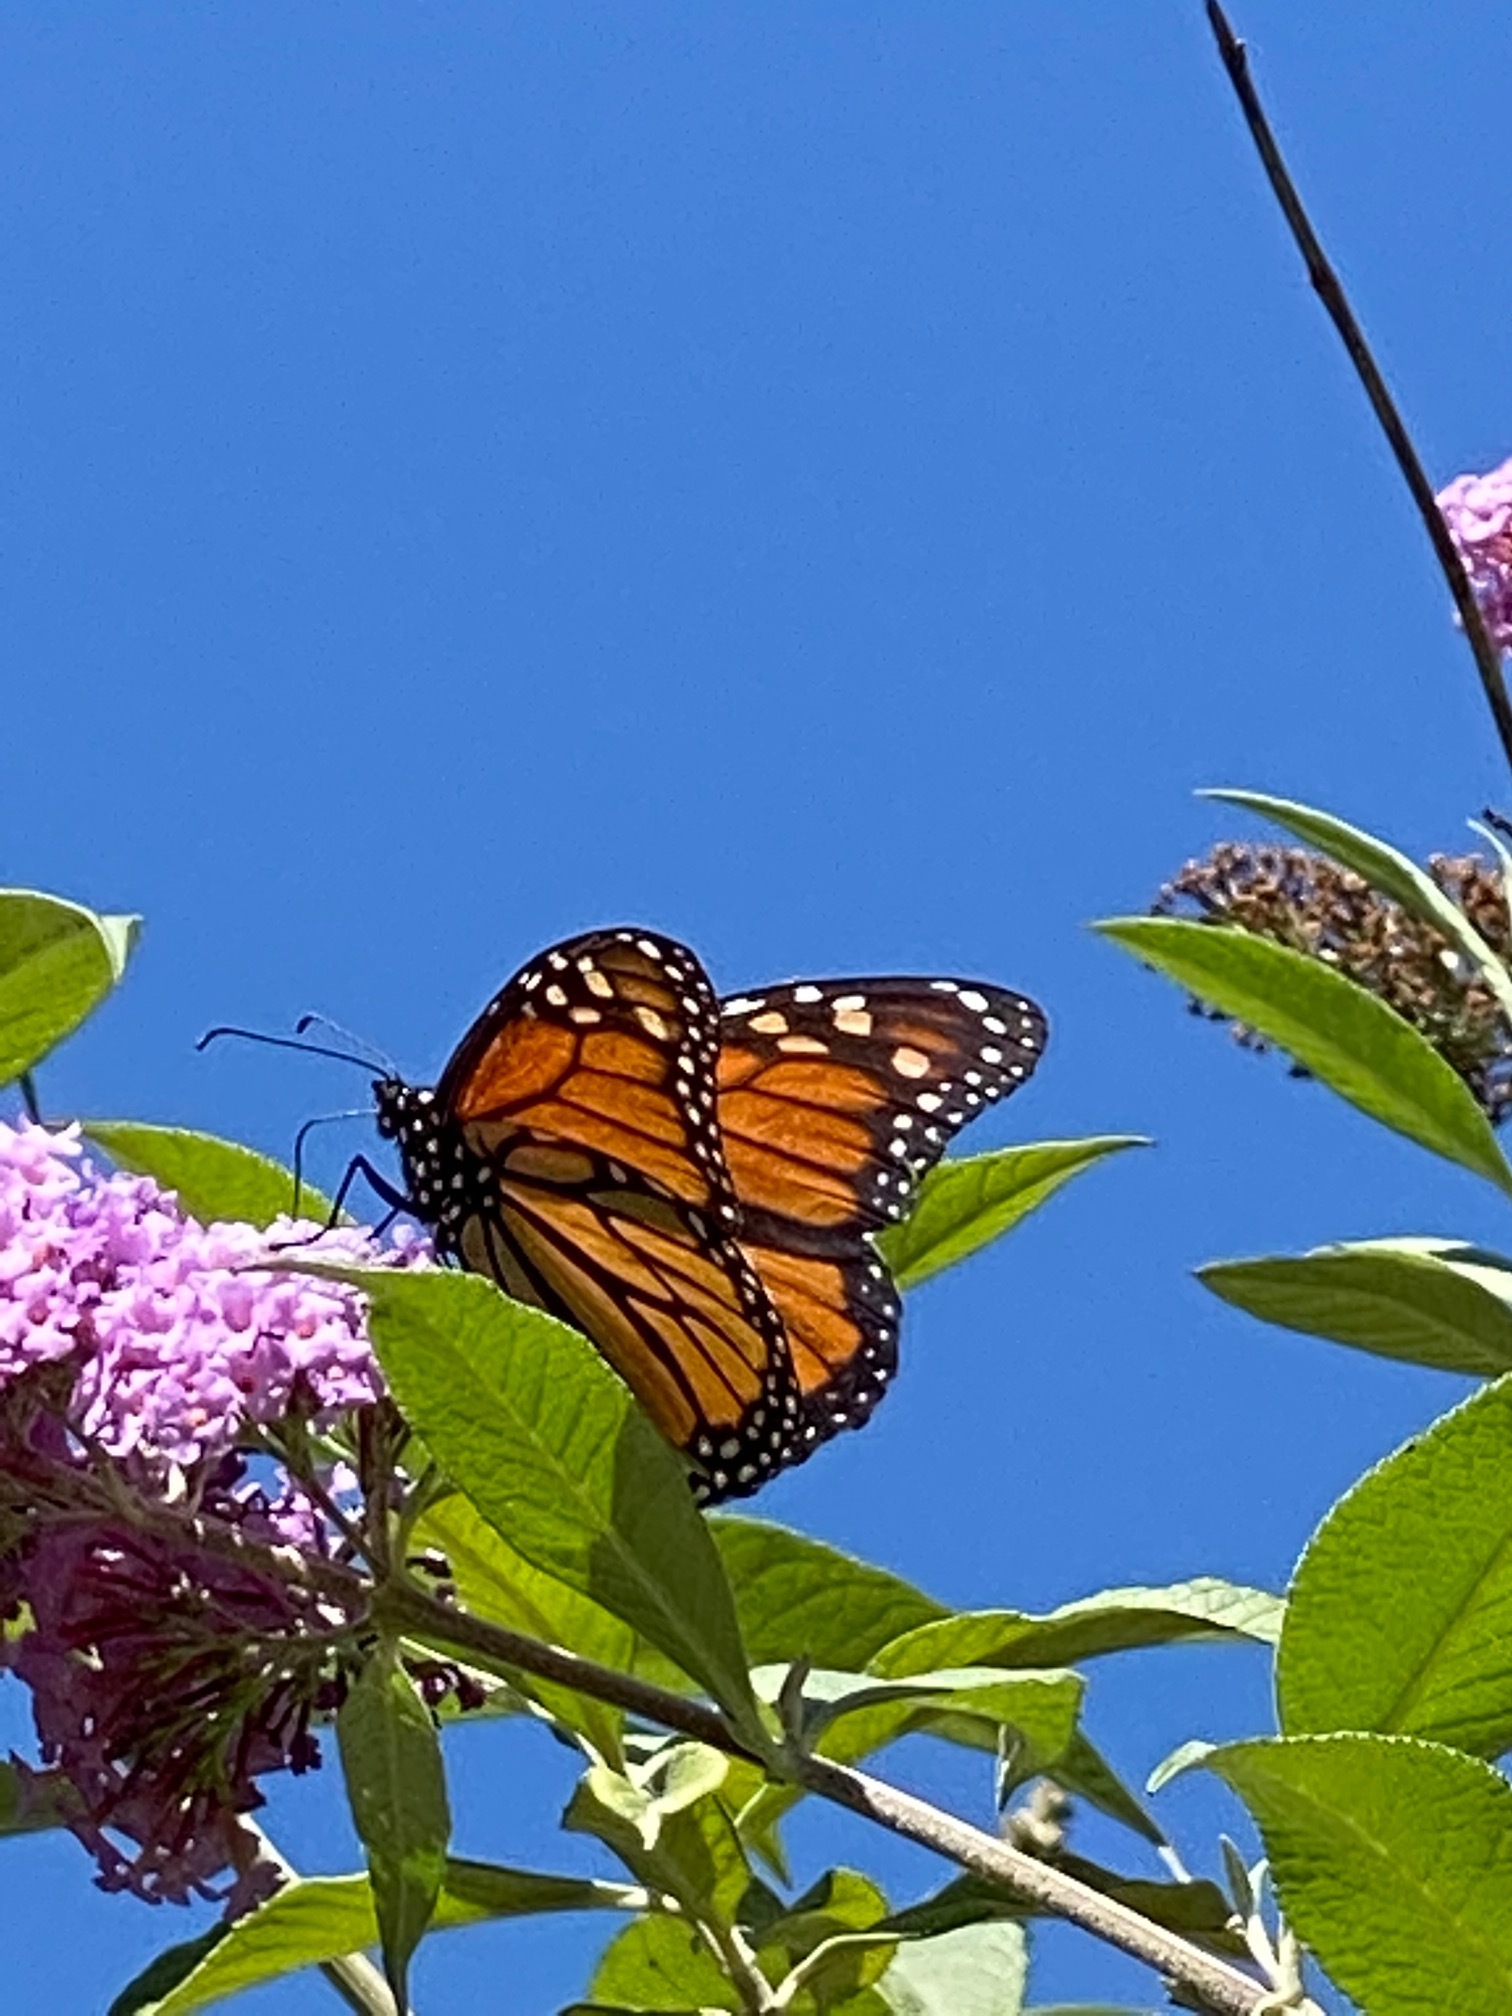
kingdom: Animalia
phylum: Arthropoda
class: Insecta
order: Lepidoptera
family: Nymphalidae
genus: Danaus
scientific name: Danaus plexippus
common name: Monarch
